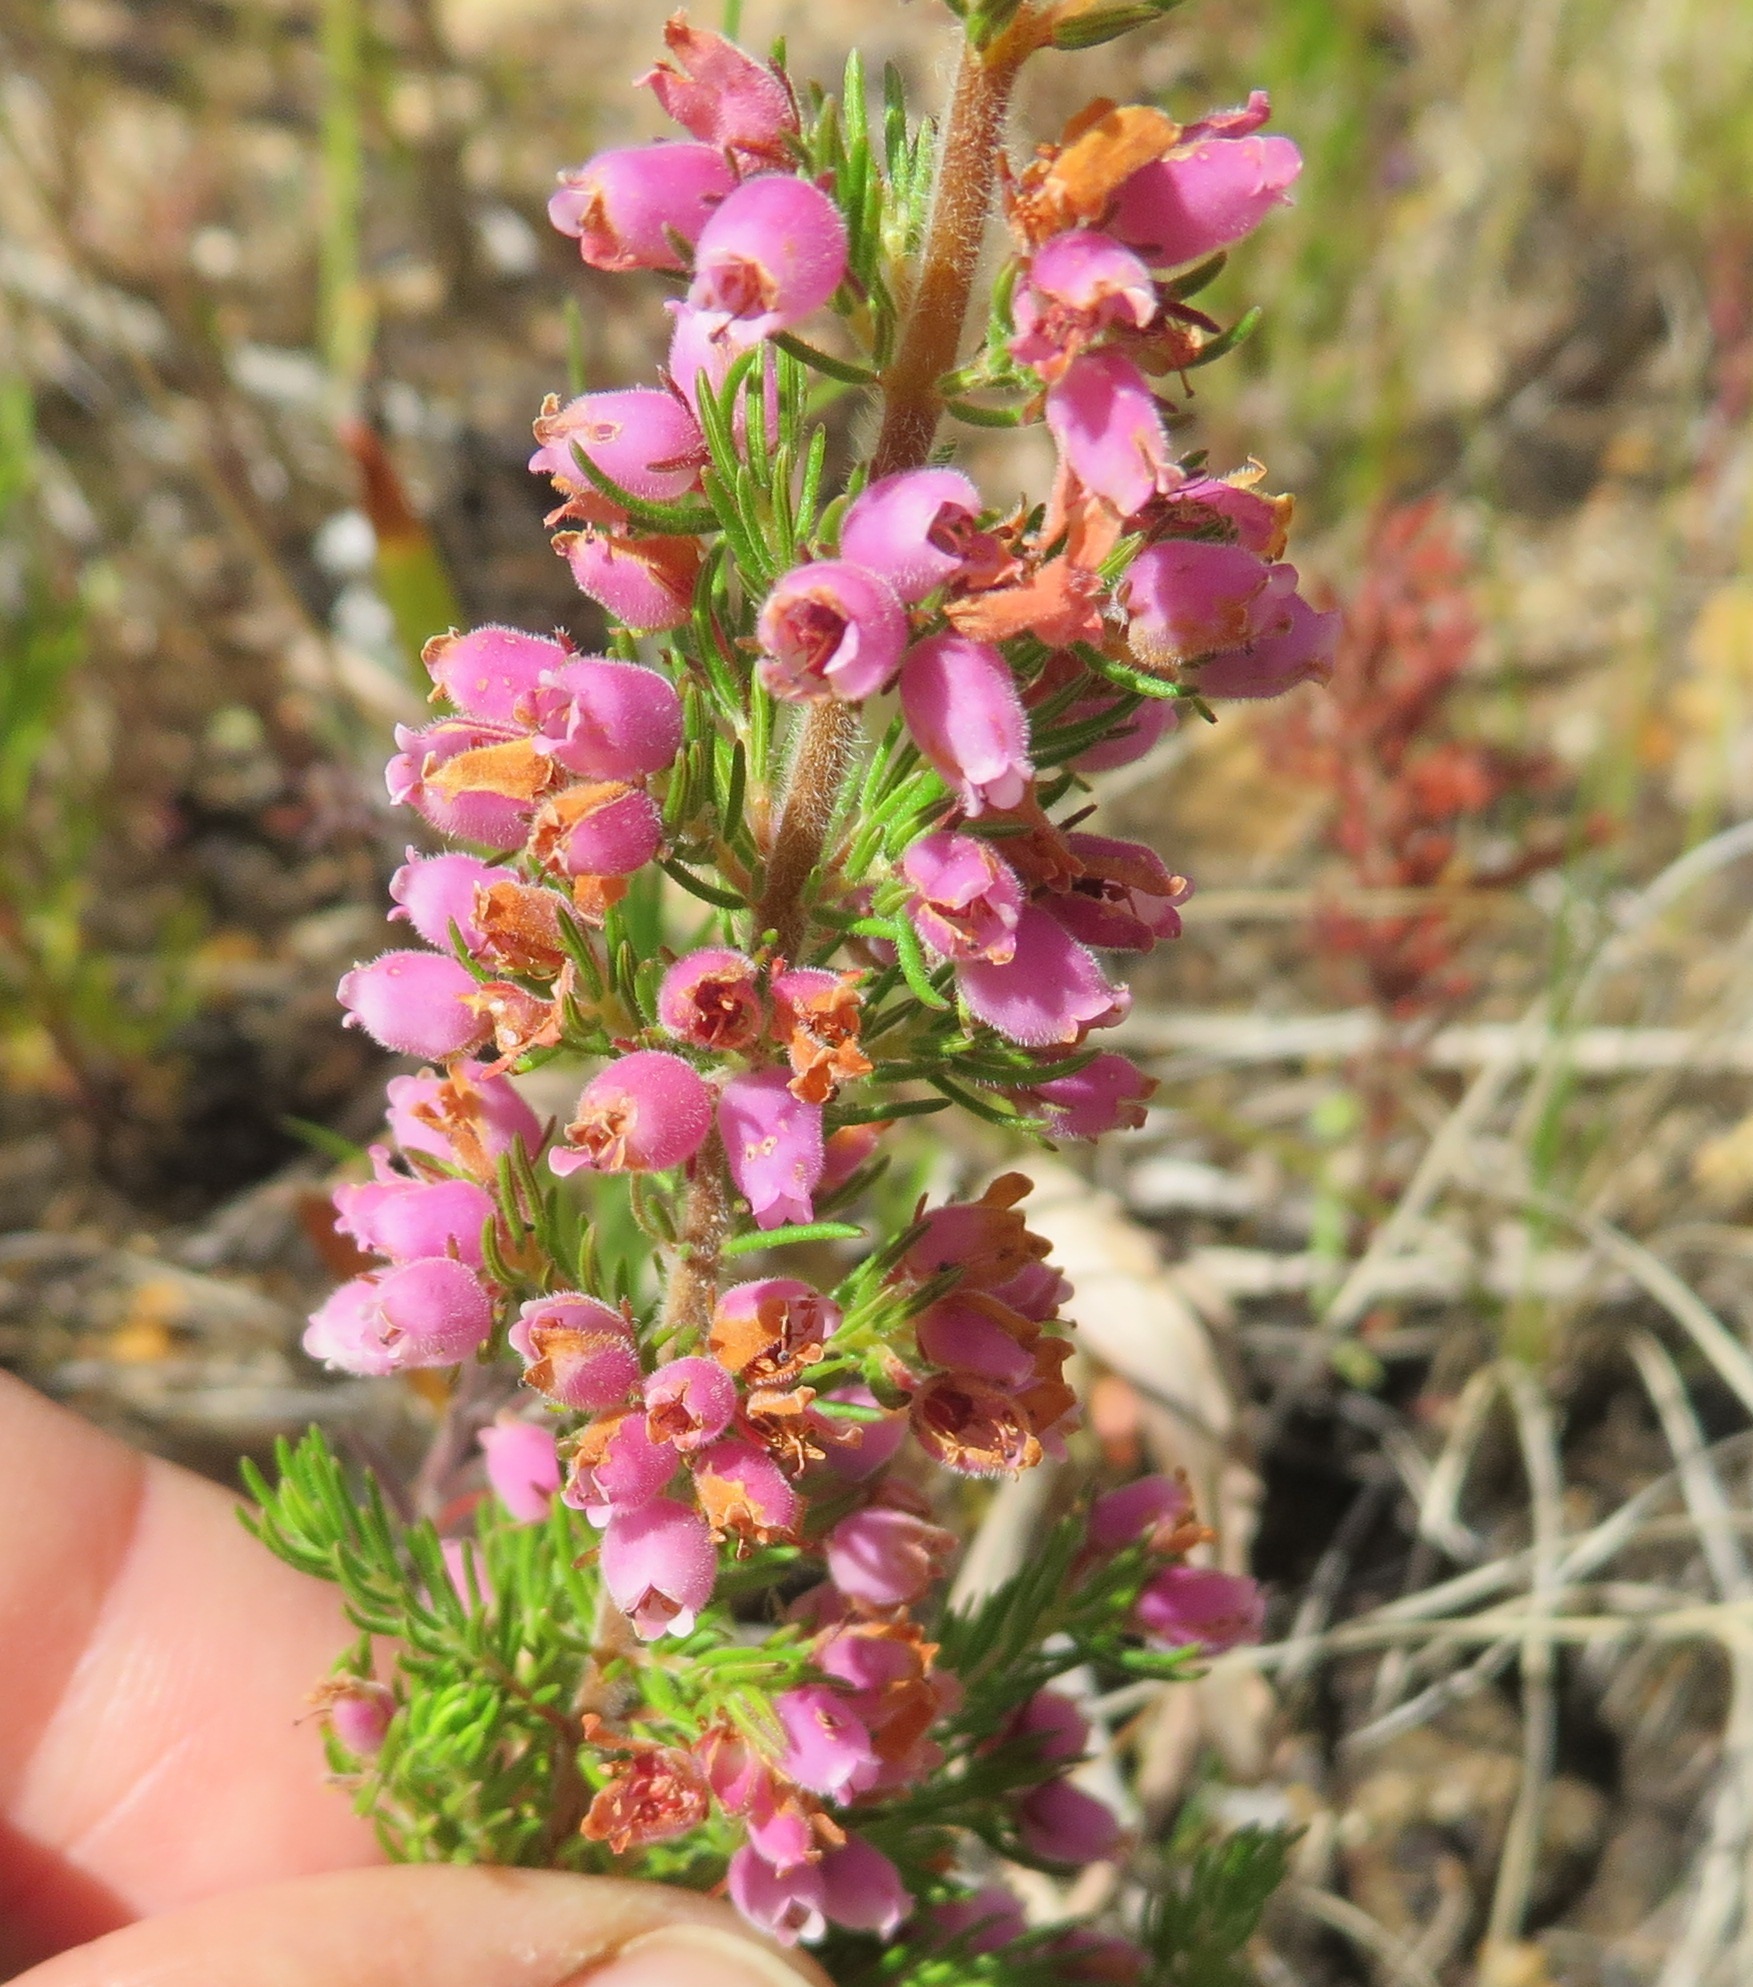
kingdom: Plantae
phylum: Tracheophyta
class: Magnoliopsida
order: Ericales
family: Ericaceae
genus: Erica
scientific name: Erica hirtiflora
